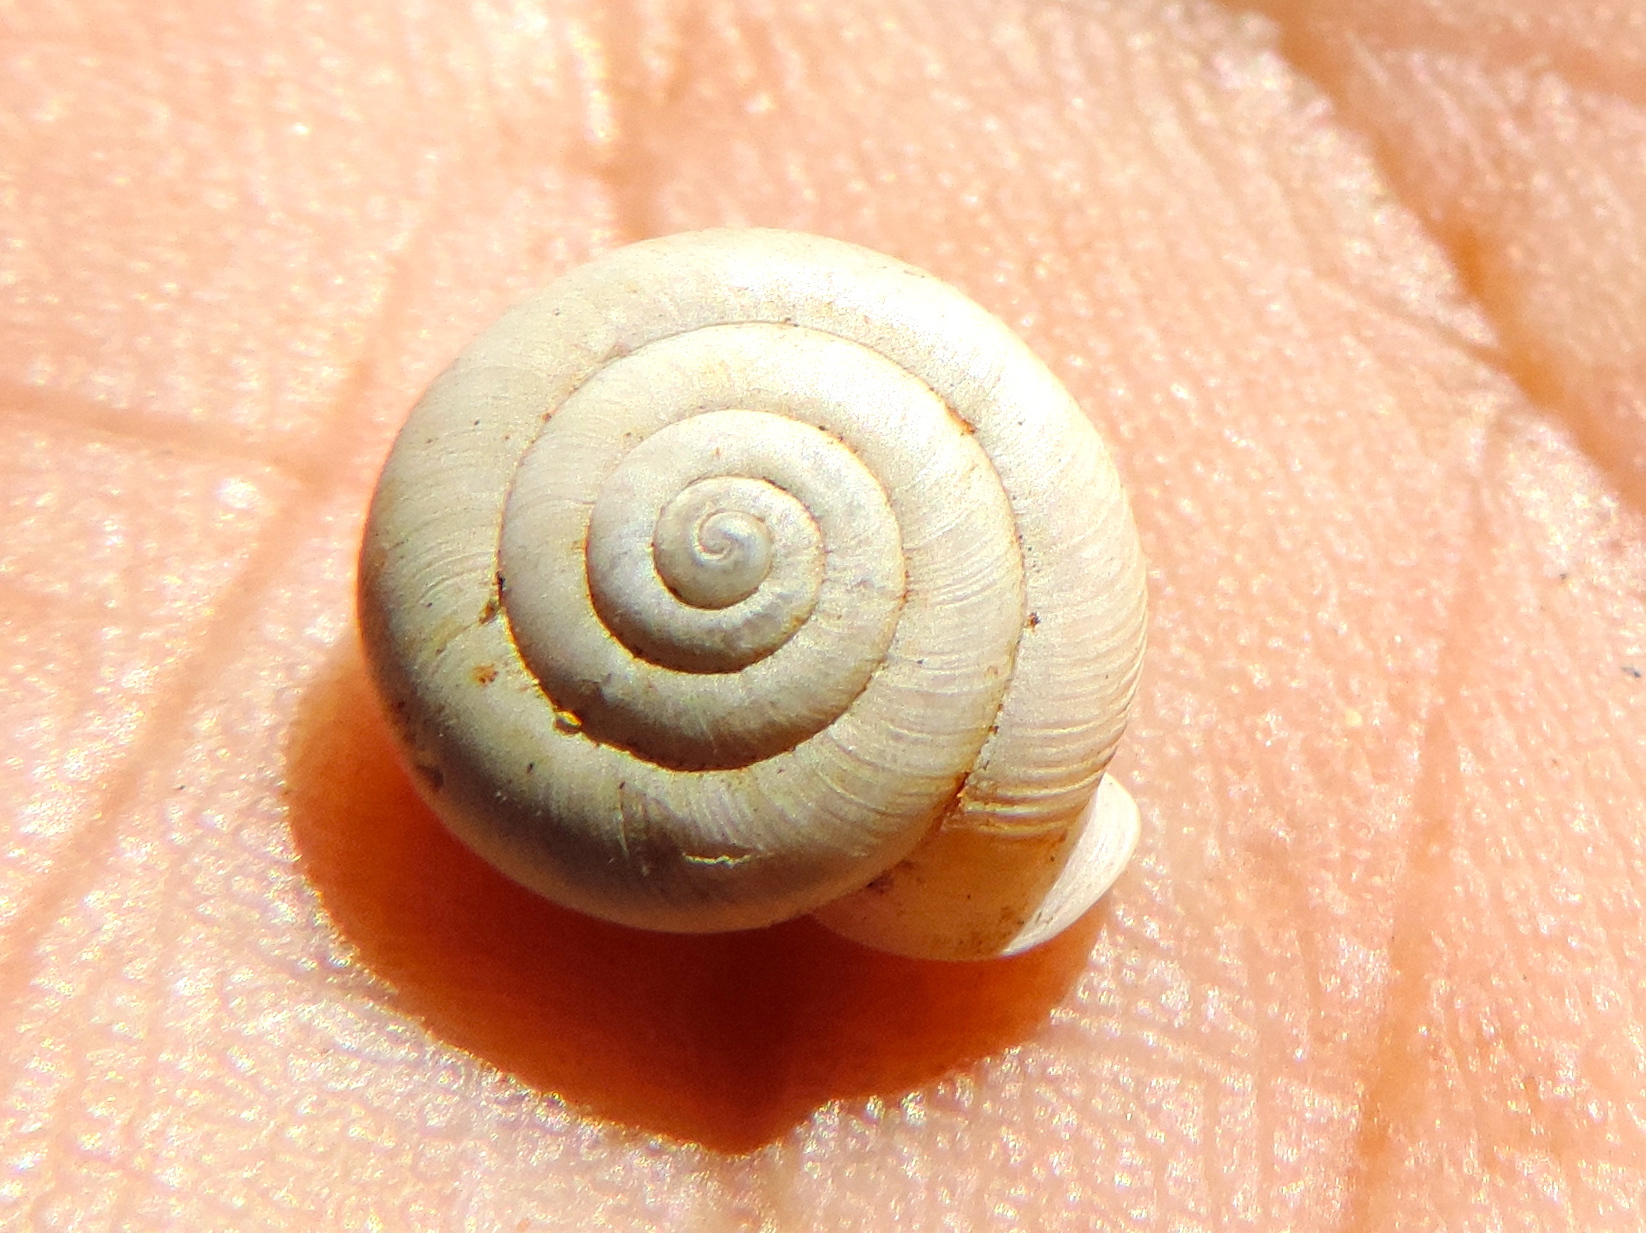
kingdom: Animalia
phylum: Mollusca
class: Gastropoda
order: Stylommatophora
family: Polygyridae
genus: Linisa
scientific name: Linisa
